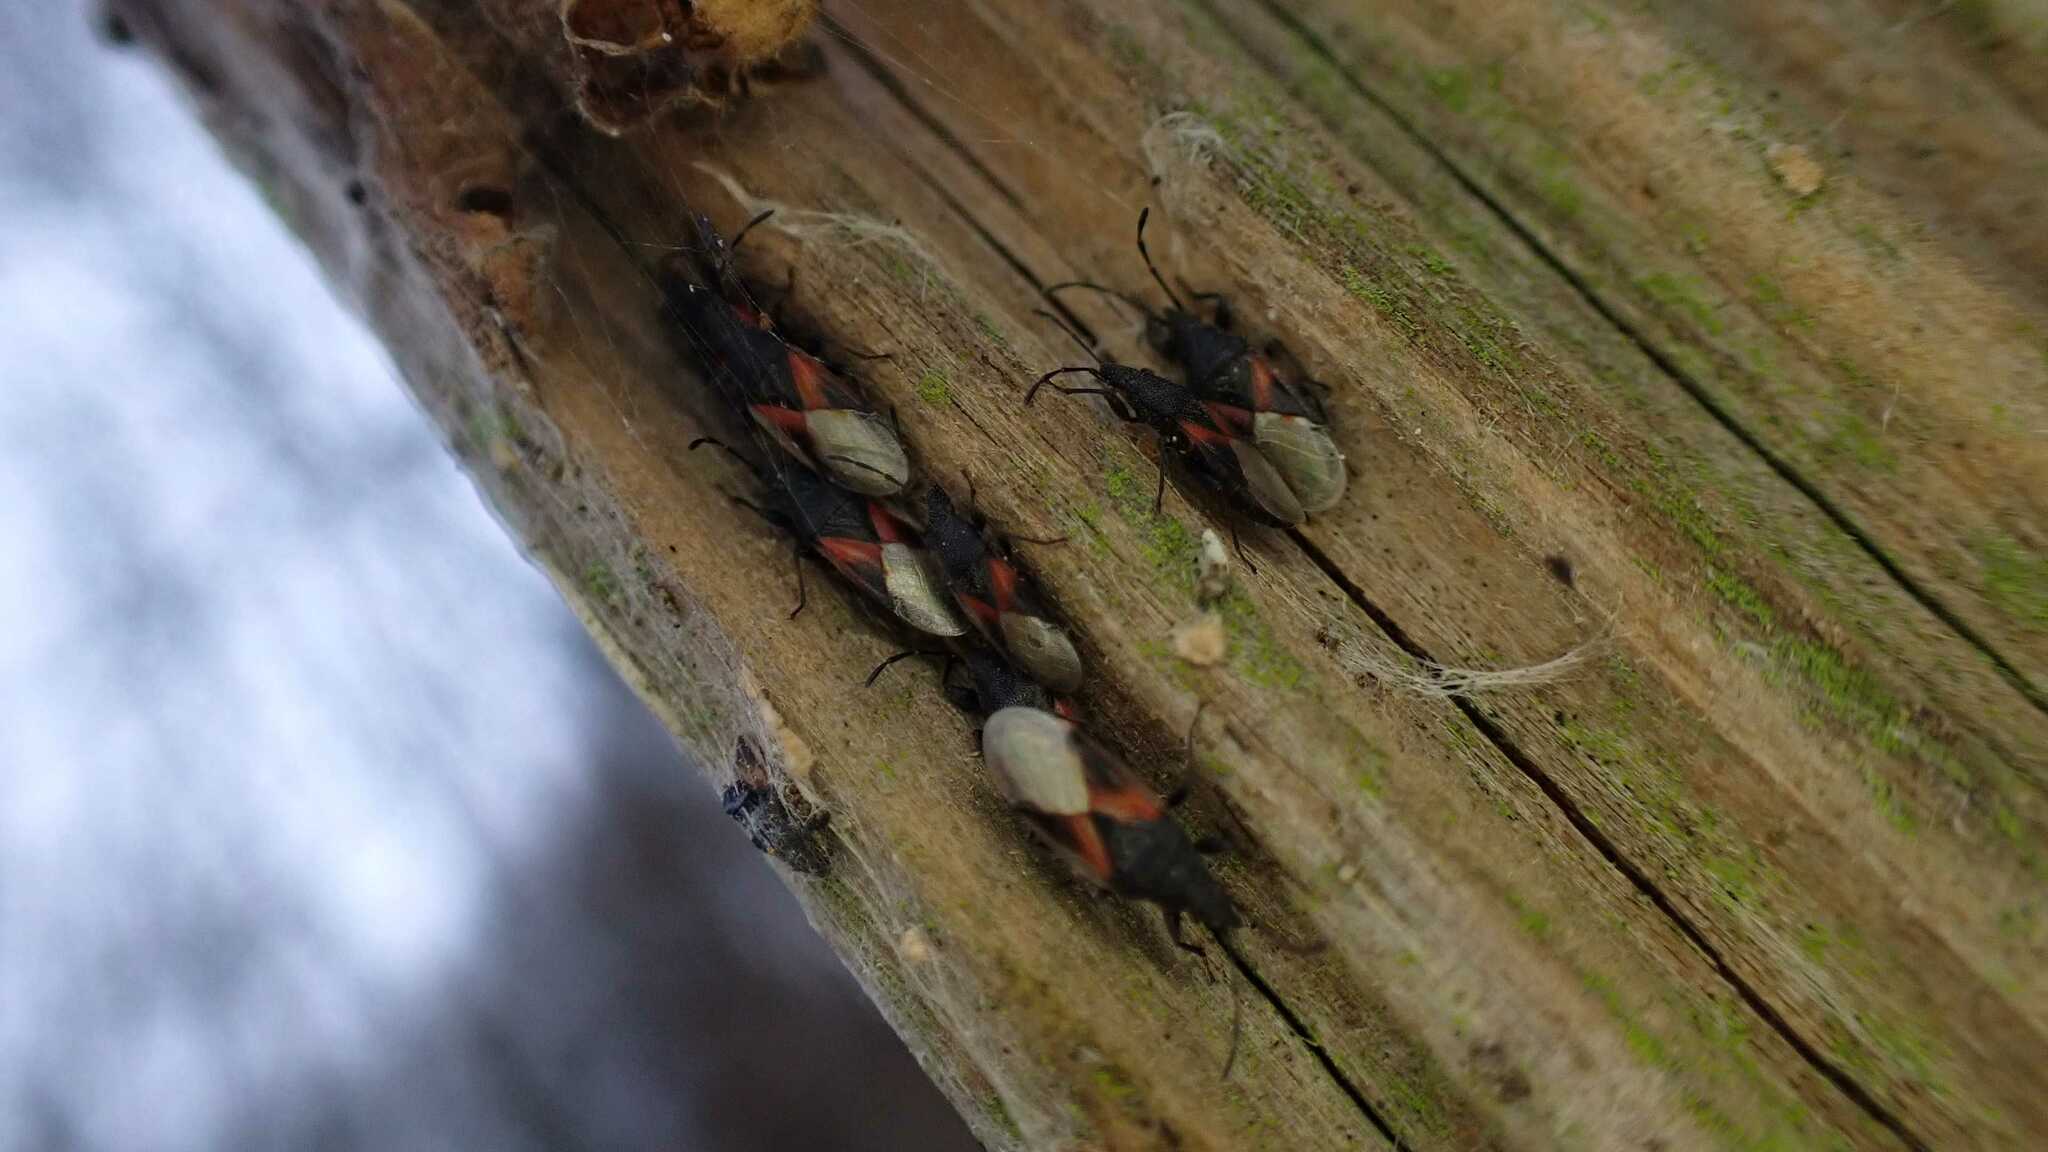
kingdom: Animalia
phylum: Arthropoda
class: Insecta
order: Hemiptera
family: Oxycarenidae
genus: Oxycarenus
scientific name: Oxycarenus lavaterae
